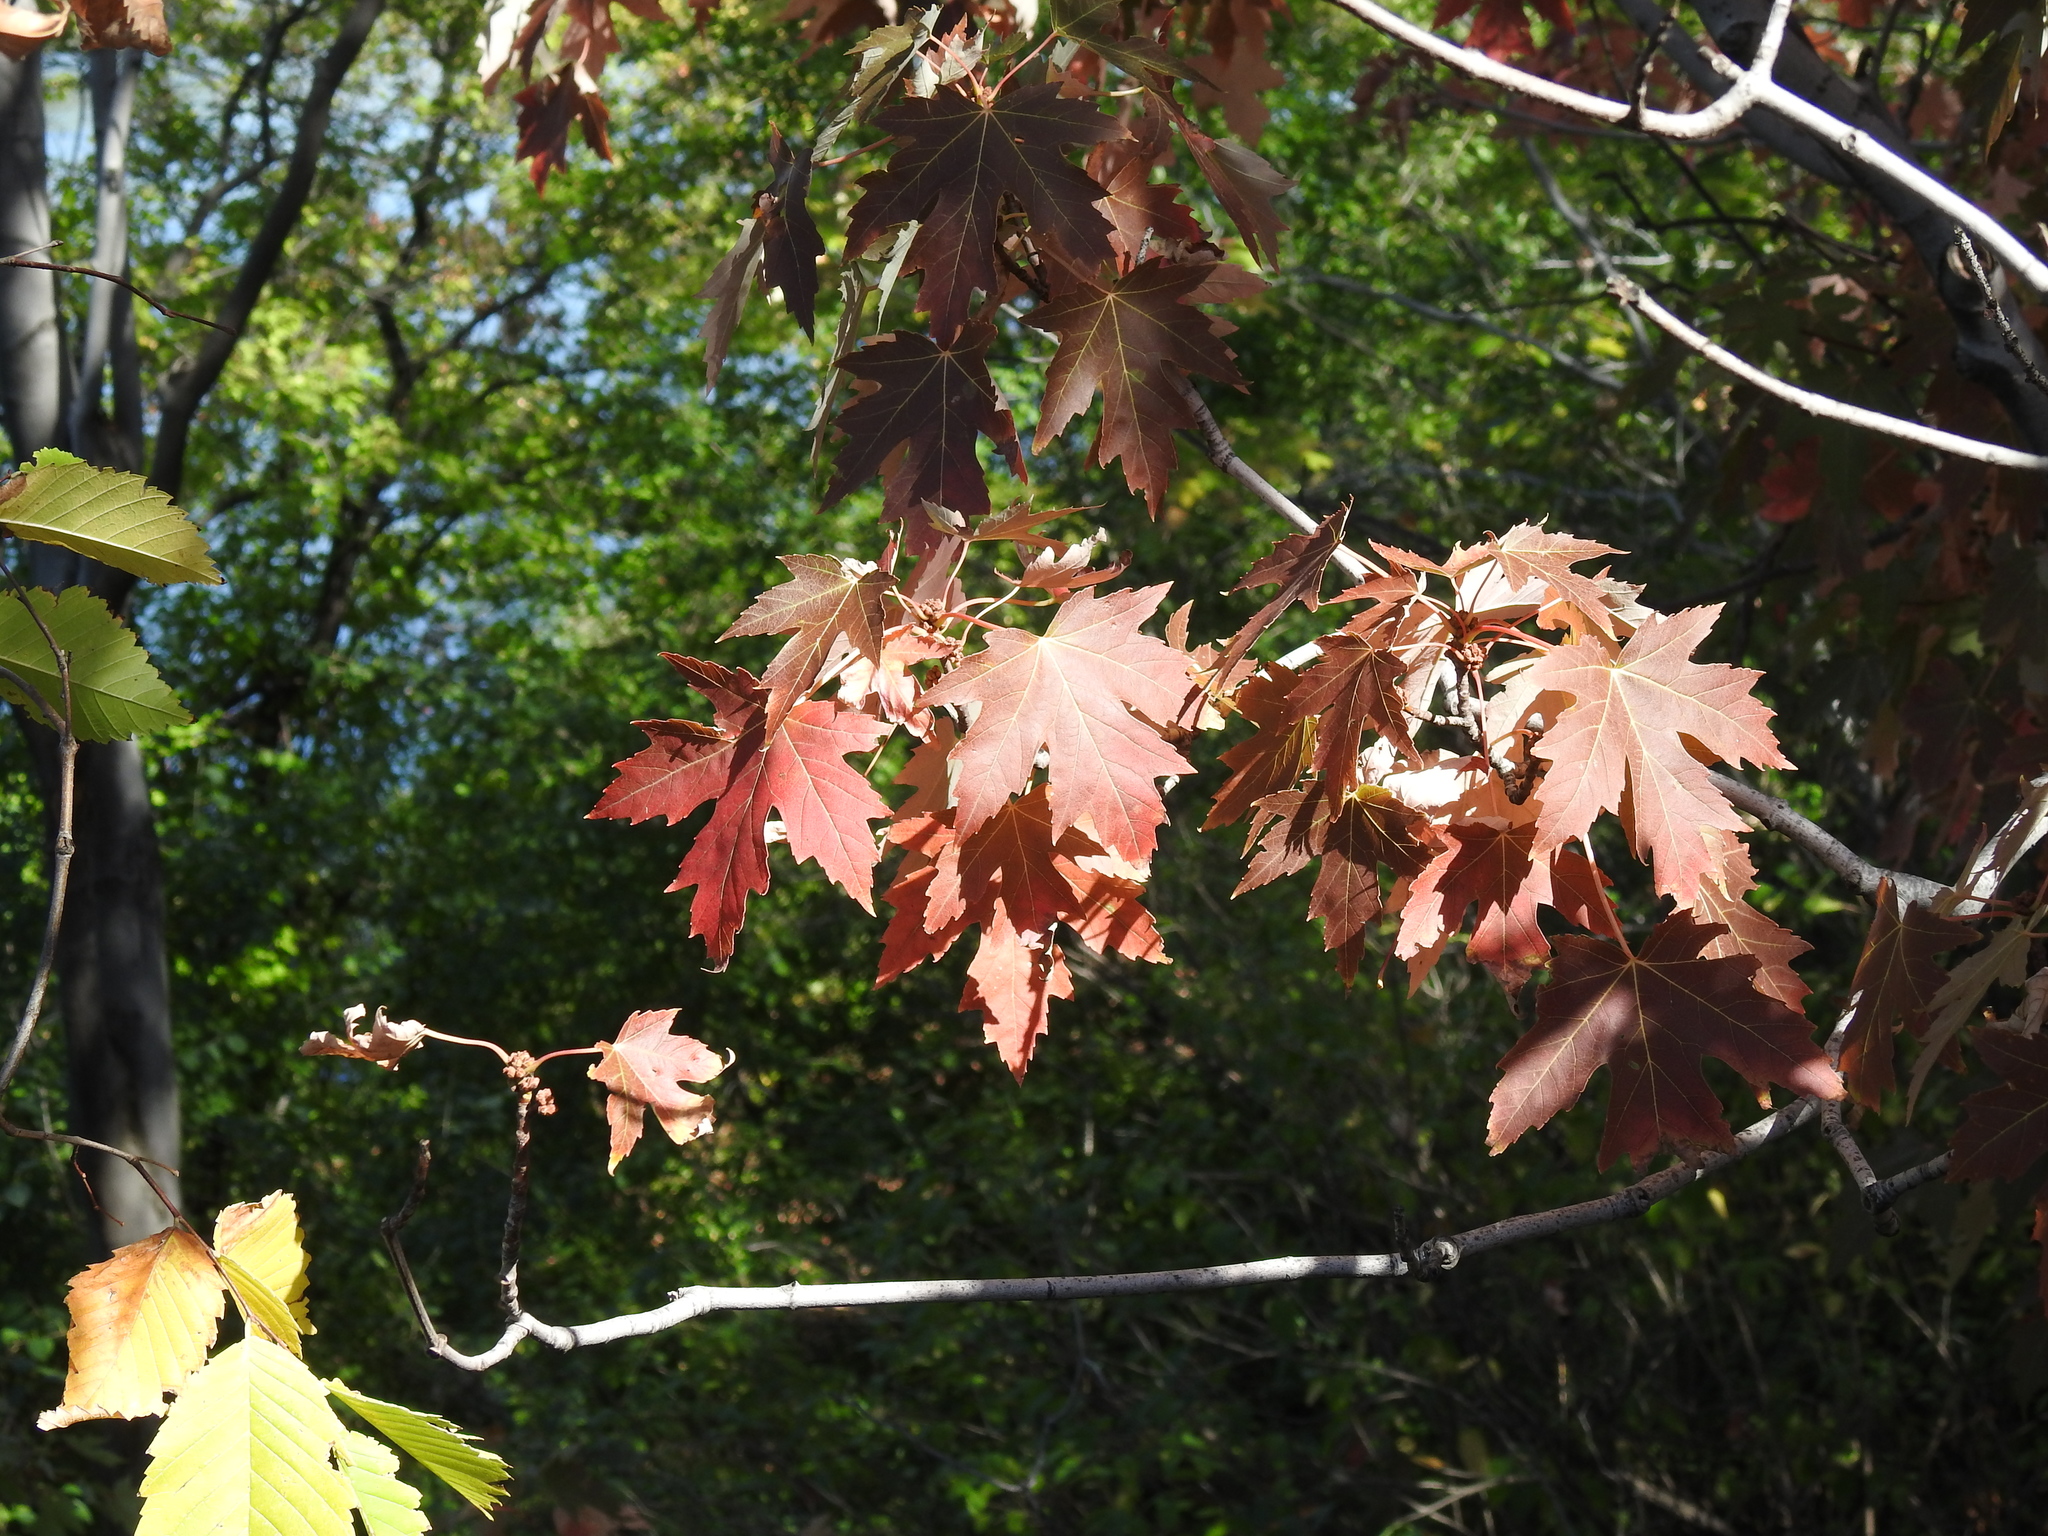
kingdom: Plantae
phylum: Tracheophyta
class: Magnoliopsida
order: Sapindales
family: Sapindaceae
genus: Acer
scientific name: Acer freemanii
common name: Freeman maple
